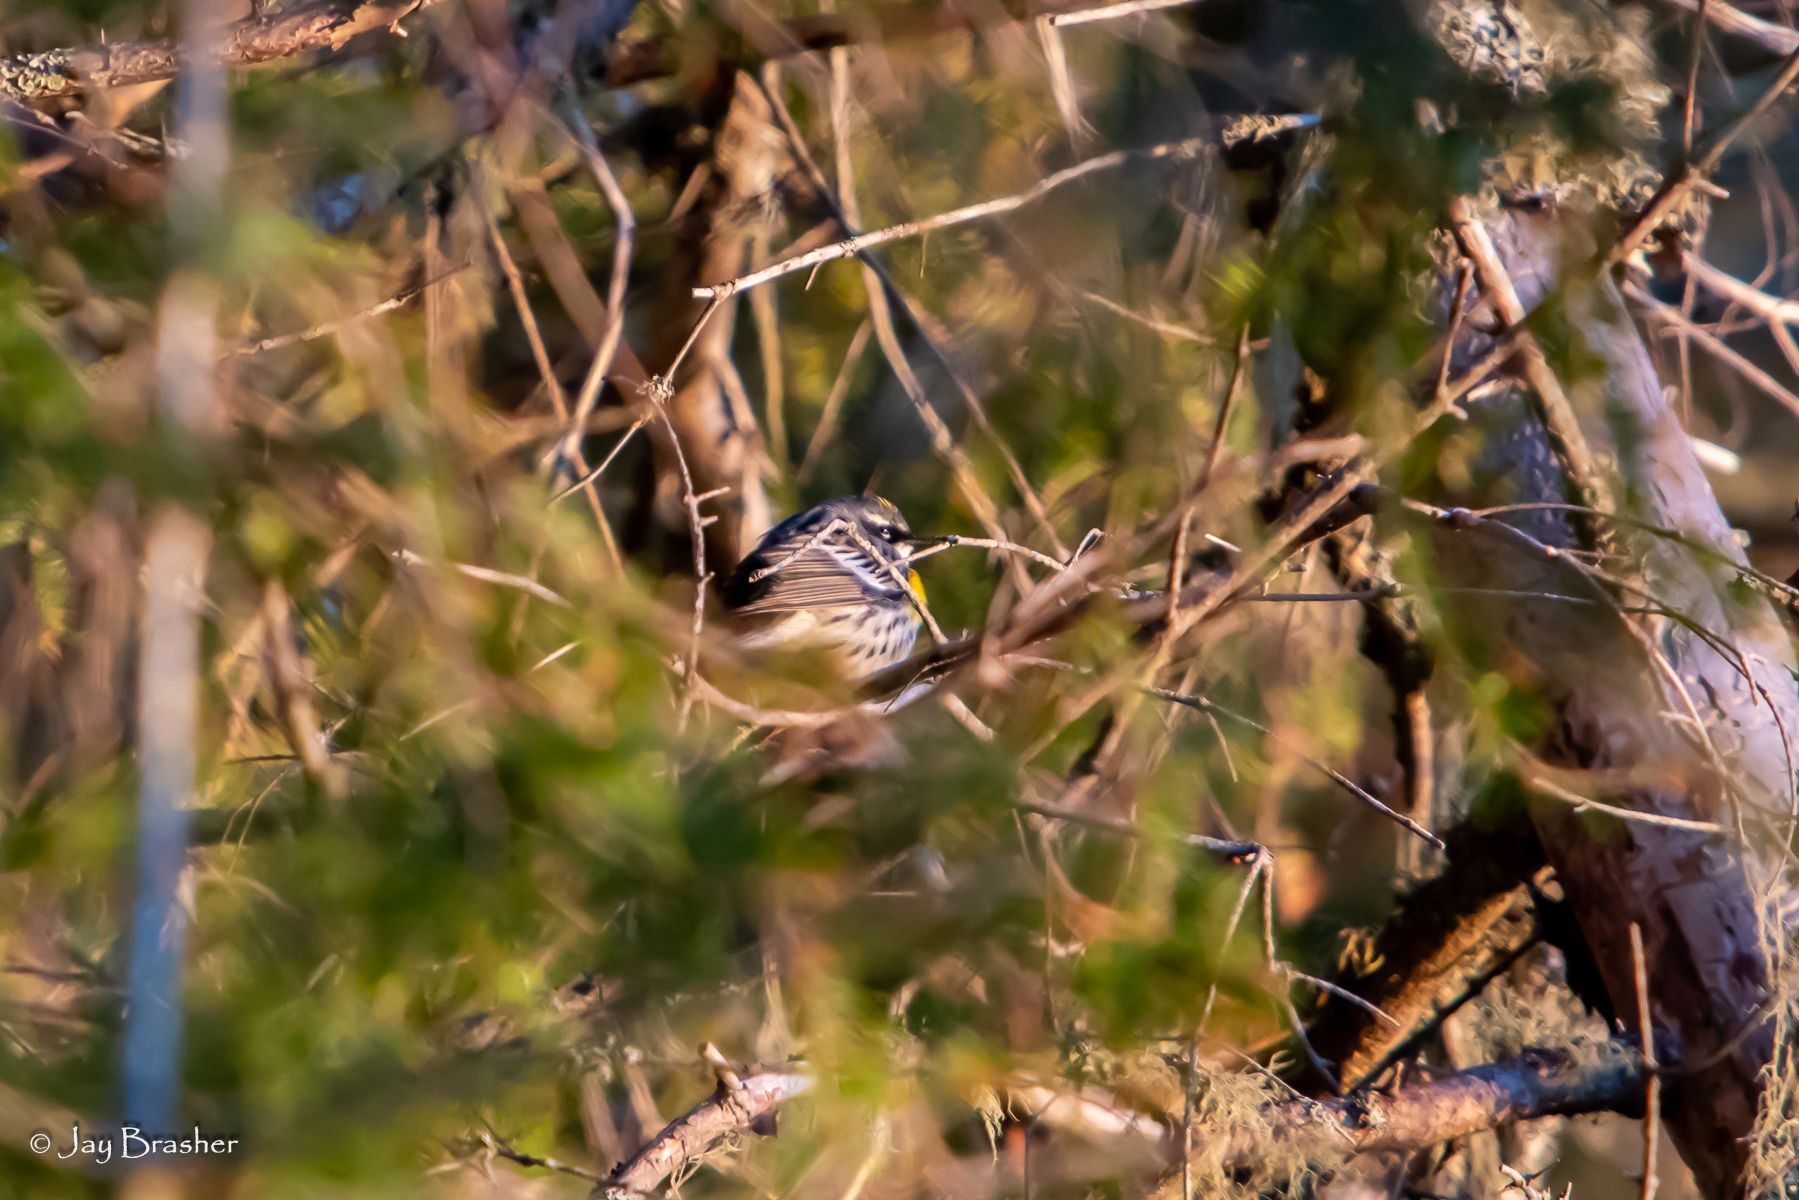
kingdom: Animalia
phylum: Chordata
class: Aves
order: Passeriformes
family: Parulidae
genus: Setophaga
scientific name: Setophaga coronata
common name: Myrtle warbler
